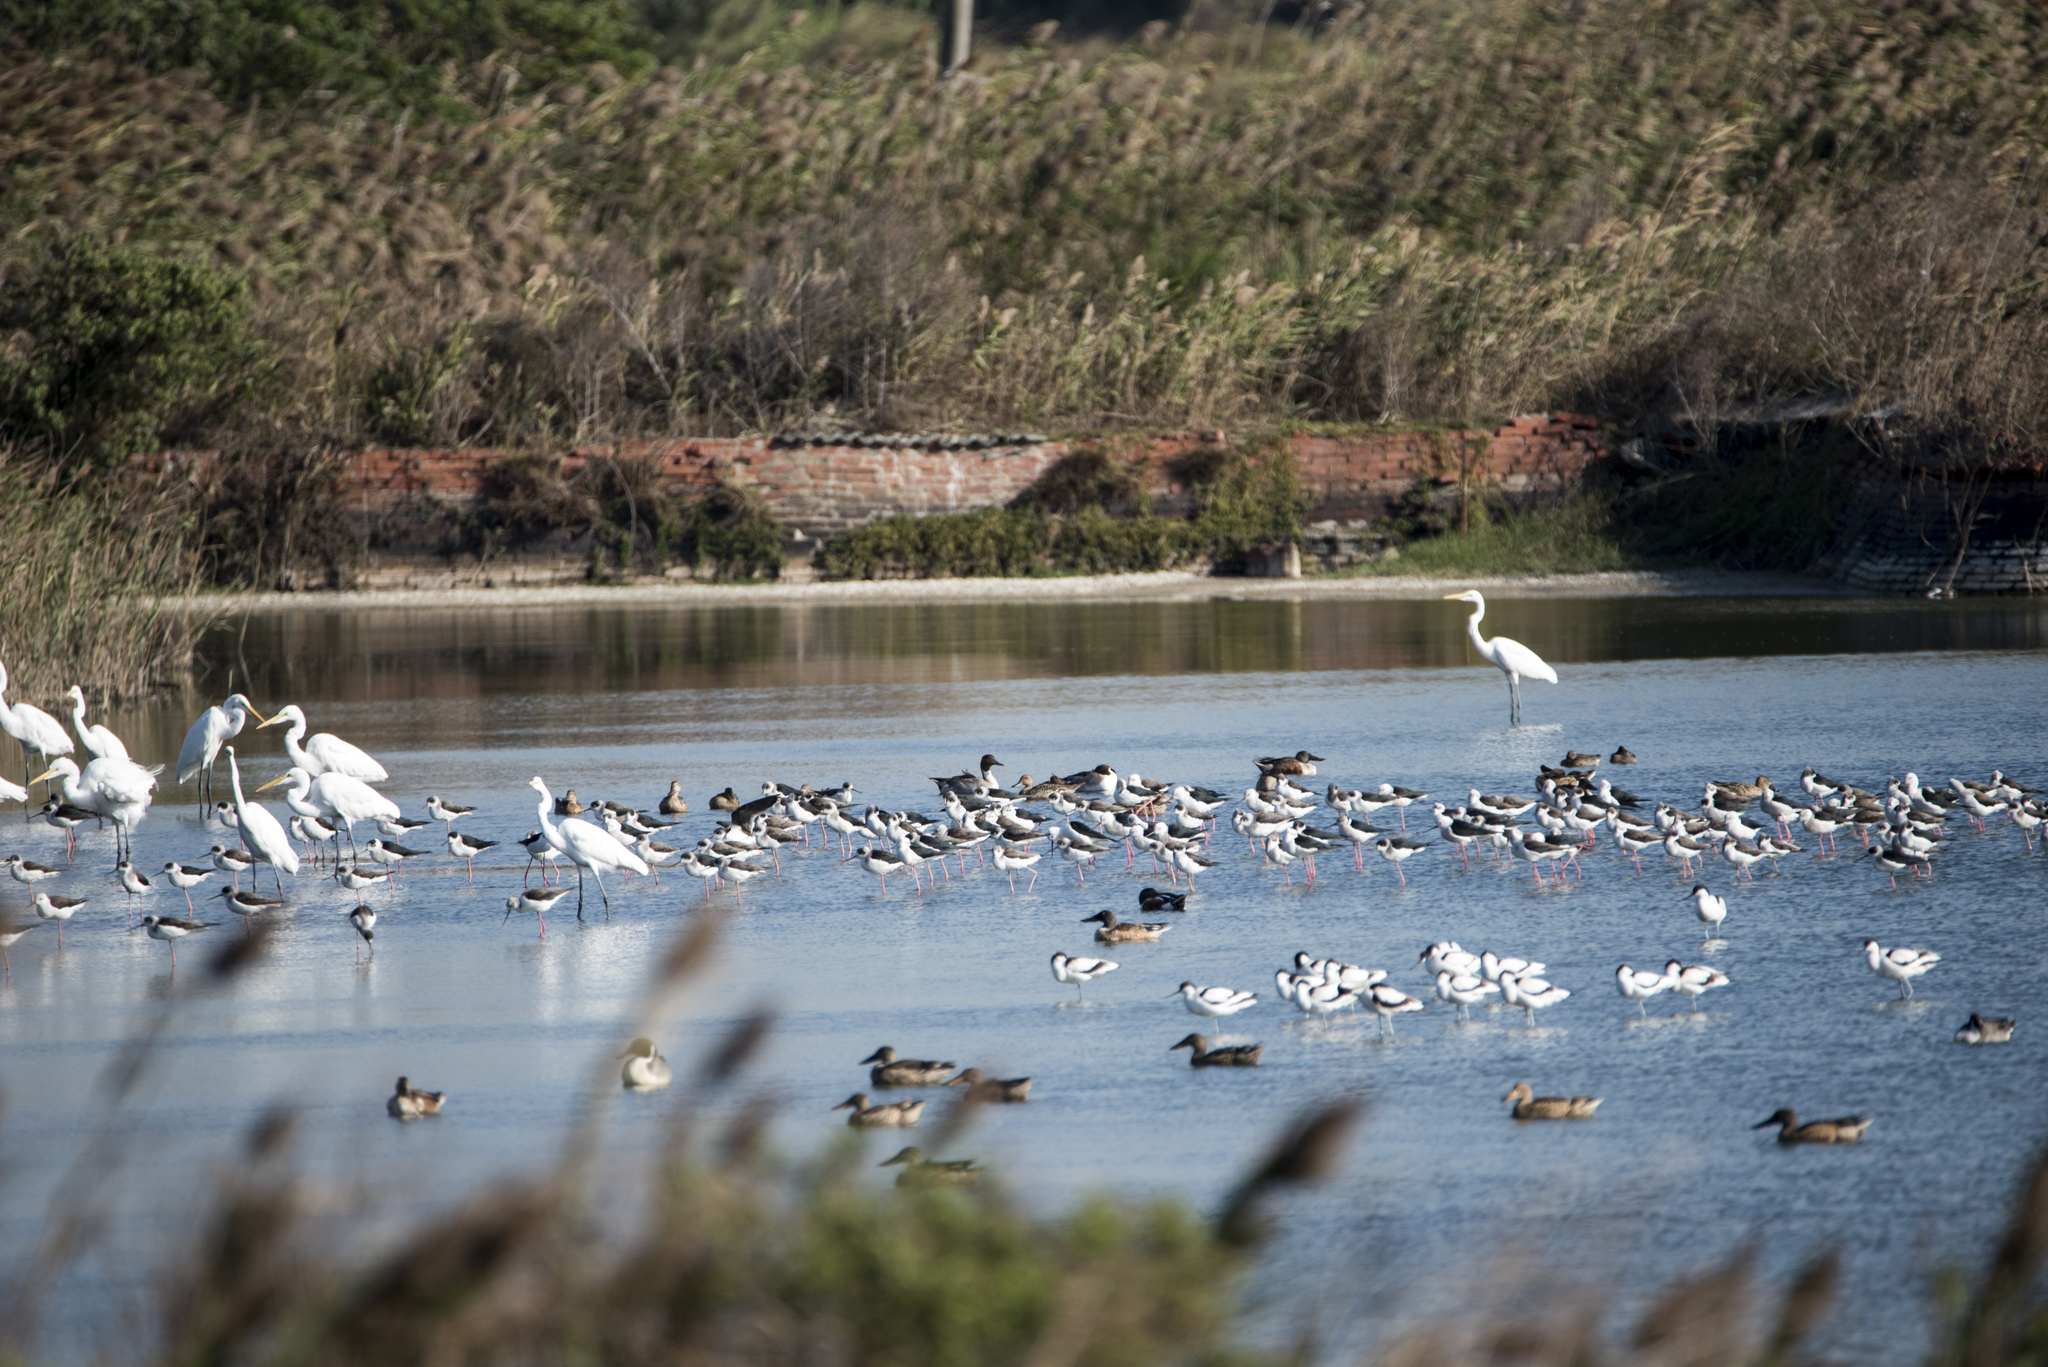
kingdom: Animalia
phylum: Chordata
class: Aves
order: Charadriiformes
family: Recurvirostridae
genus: Himantopus
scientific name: Himantopus himantopus
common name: Black-winged stilt
